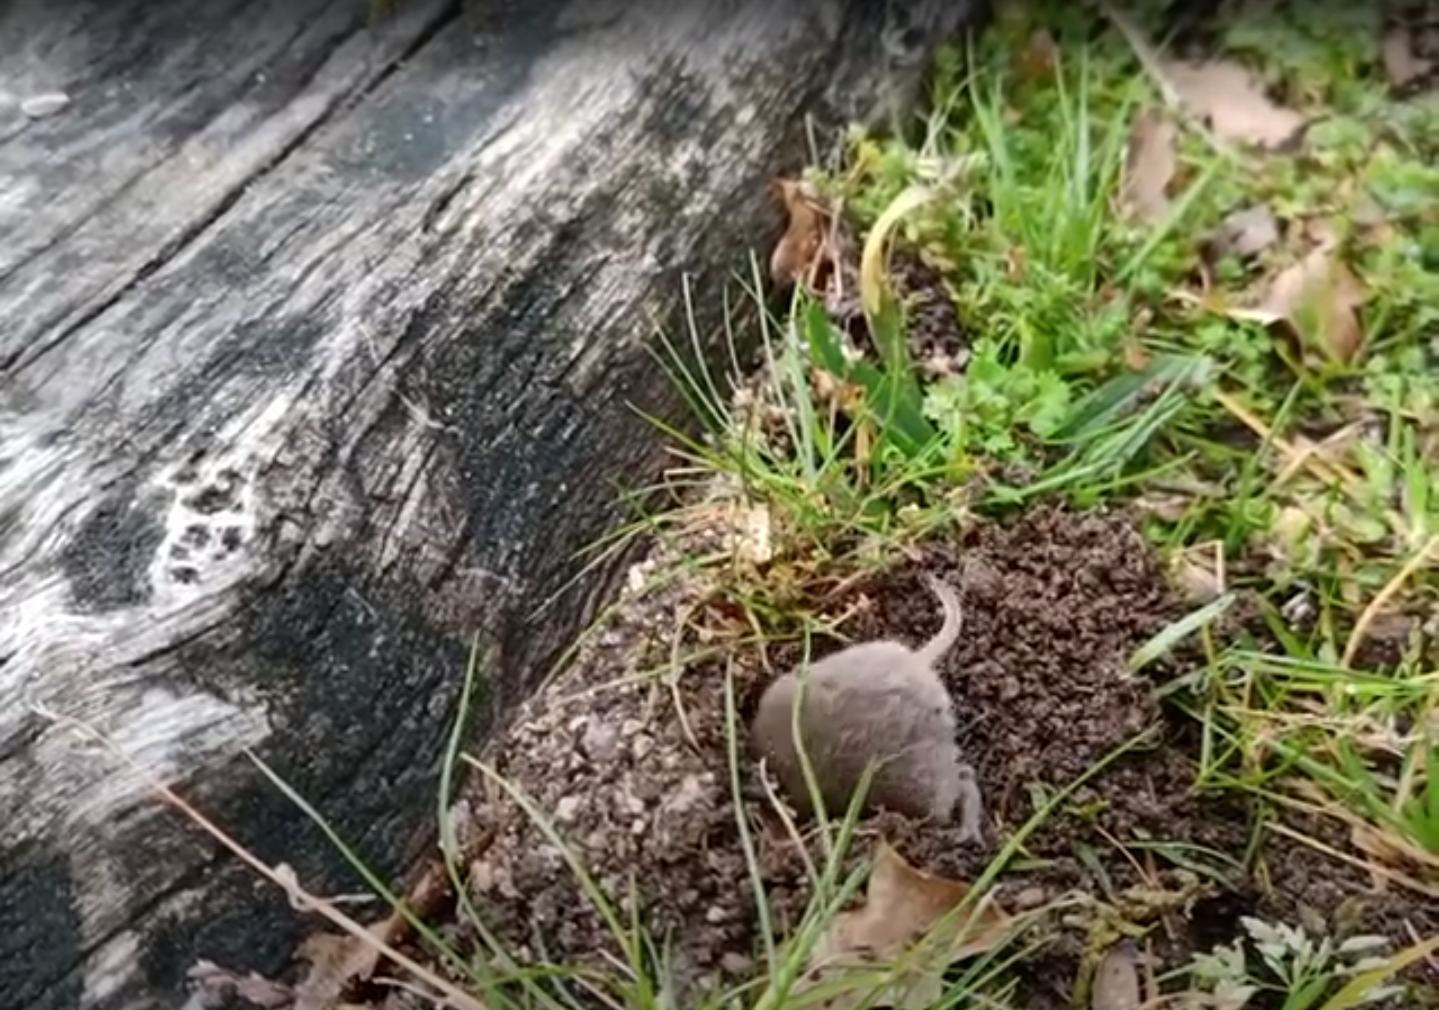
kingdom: Animalia
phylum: Chordata
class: Mammalia
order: Rodentia
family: Cricetidae
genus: Microtus
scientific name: Microtus lusitanicus
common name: Lusitanian pine vole
